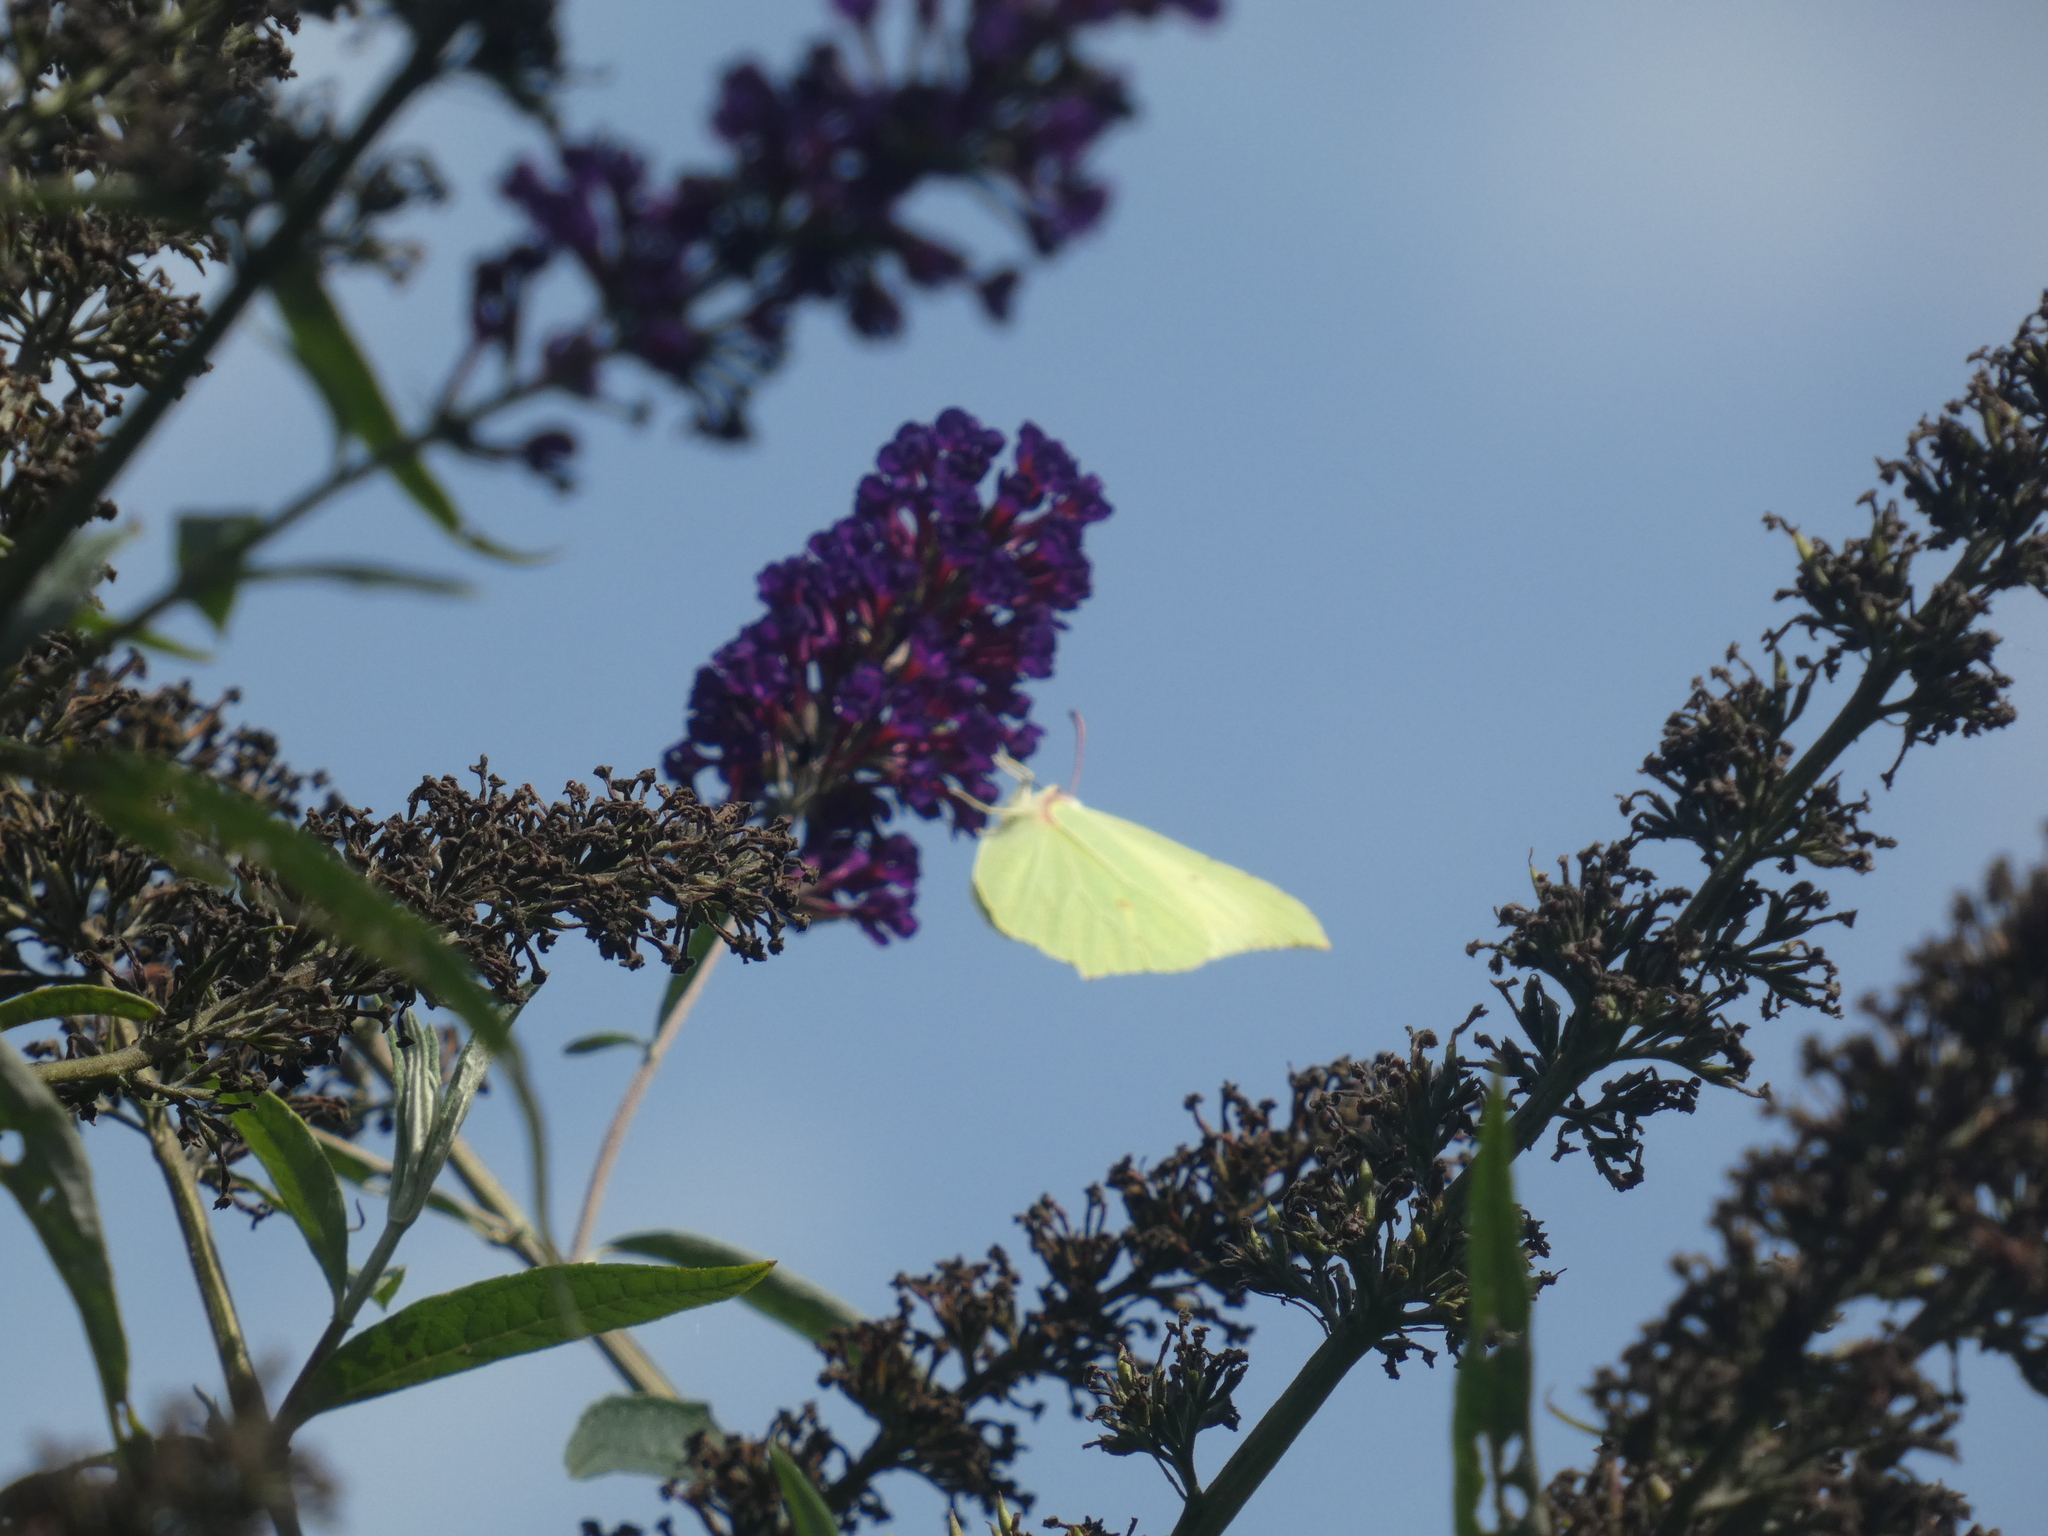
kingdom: Animalia
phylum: Arthropoda
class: Insecta
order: Lepidoptera
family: Pieridae
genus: Gonepteryx
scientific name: Gonepteryx rhamni
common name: Brimstone
